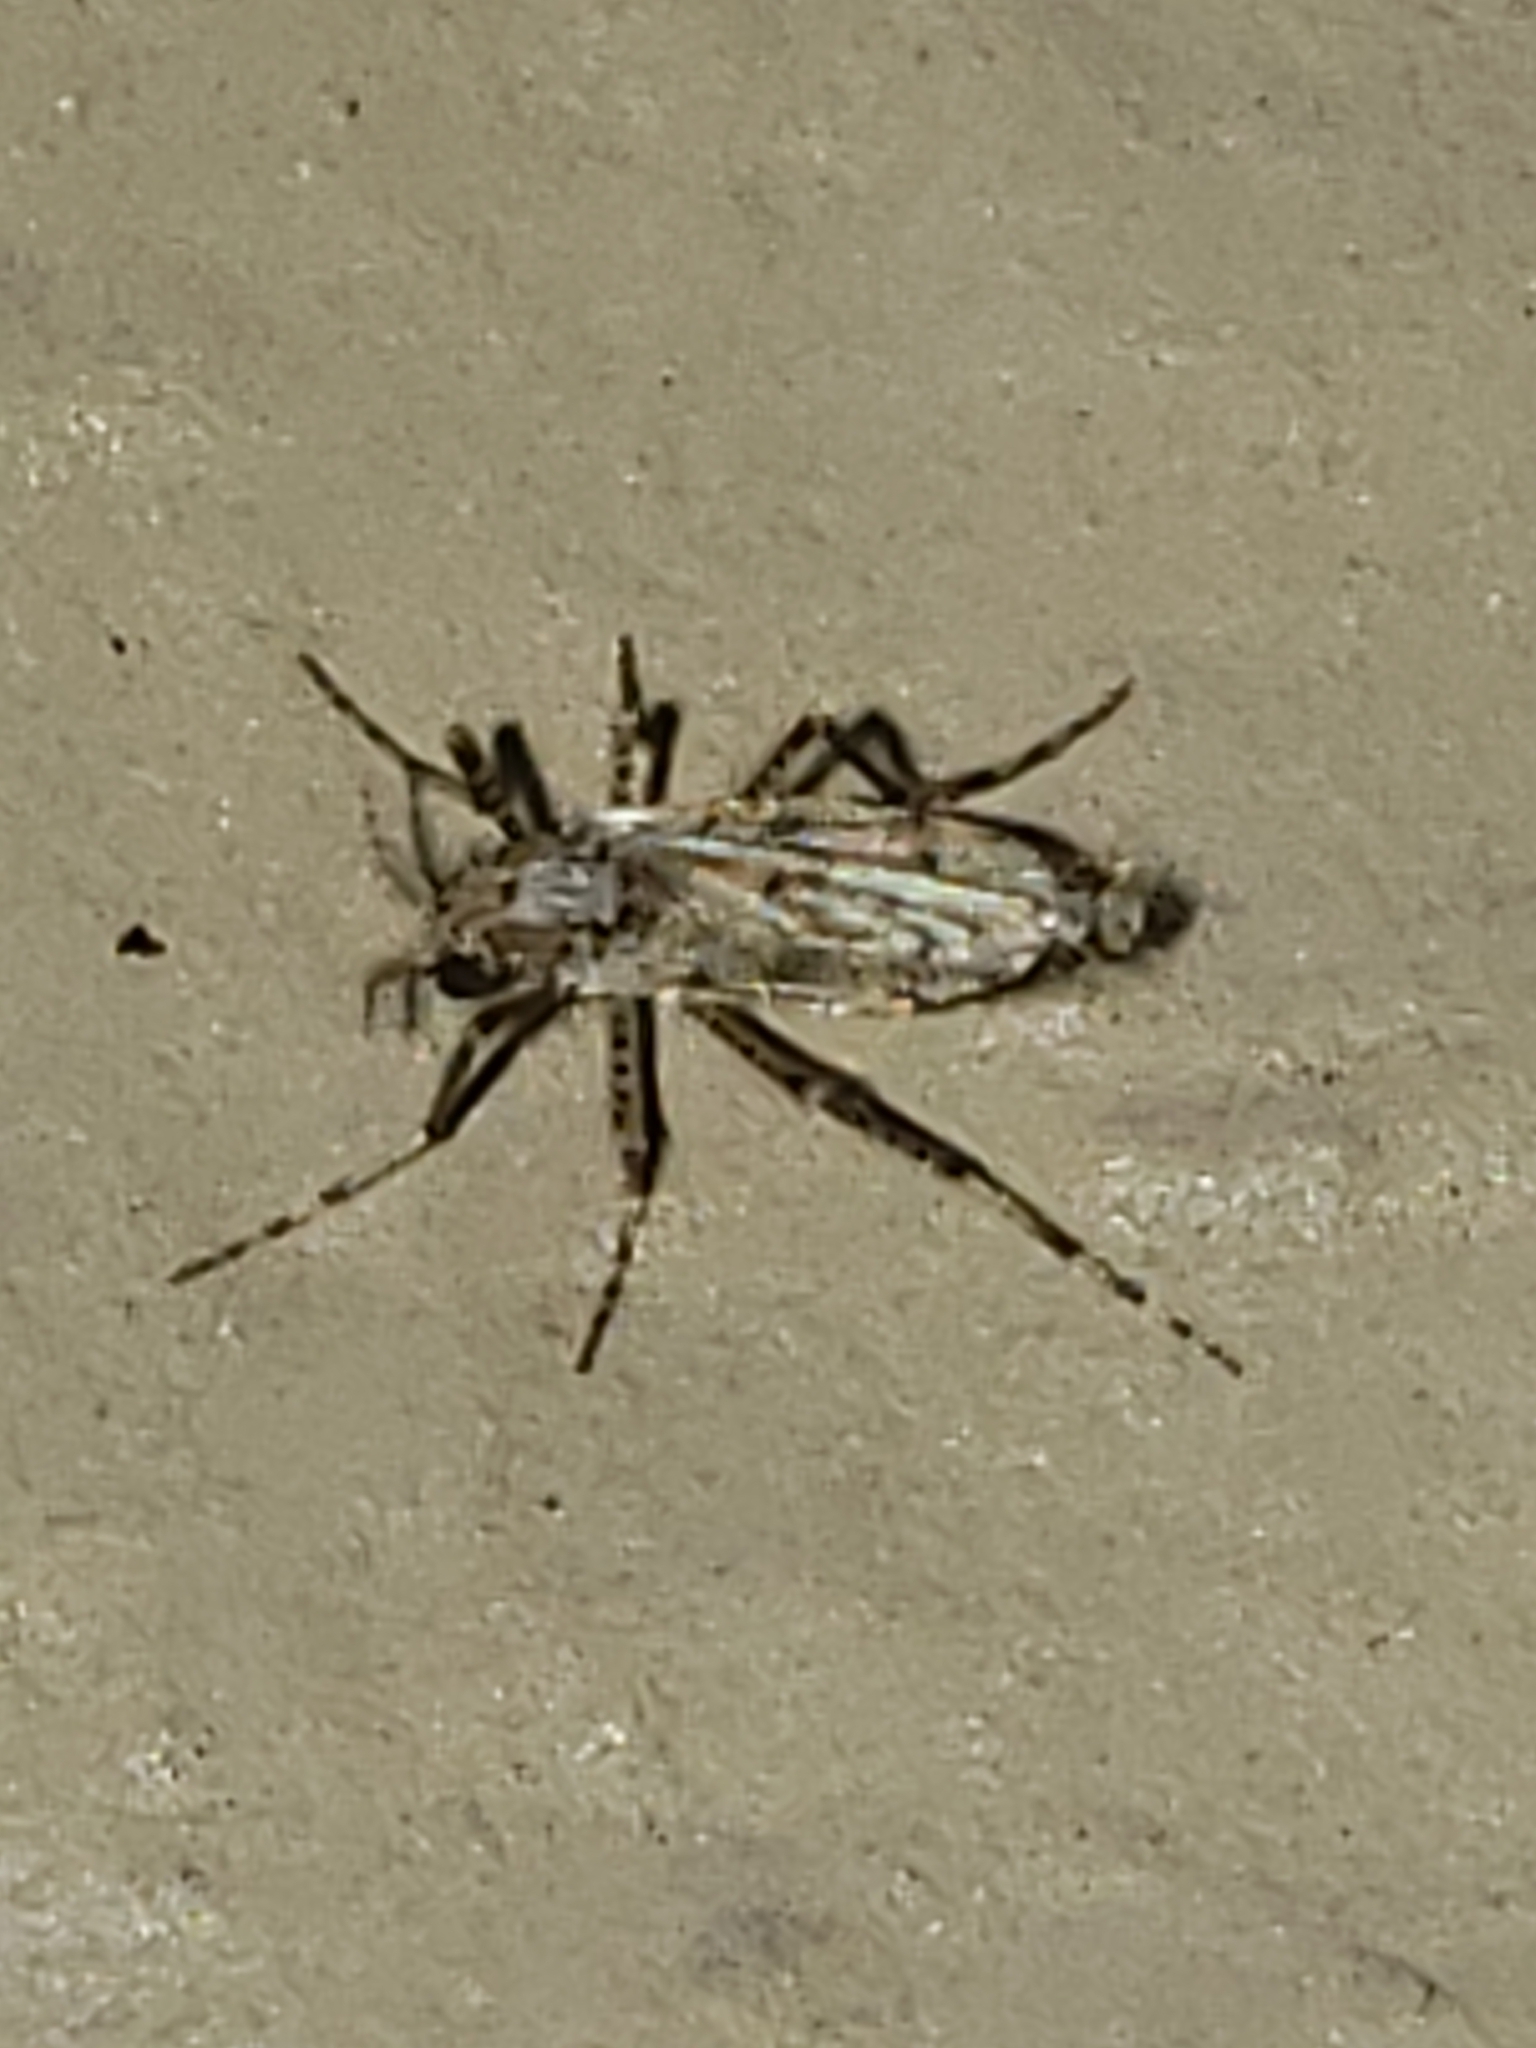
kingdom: Animalia
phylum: Arthropoda
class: Insecta
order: Diptera
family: Chaoboridae
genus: Chaoborus
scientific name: Chaoborus punctipennis
